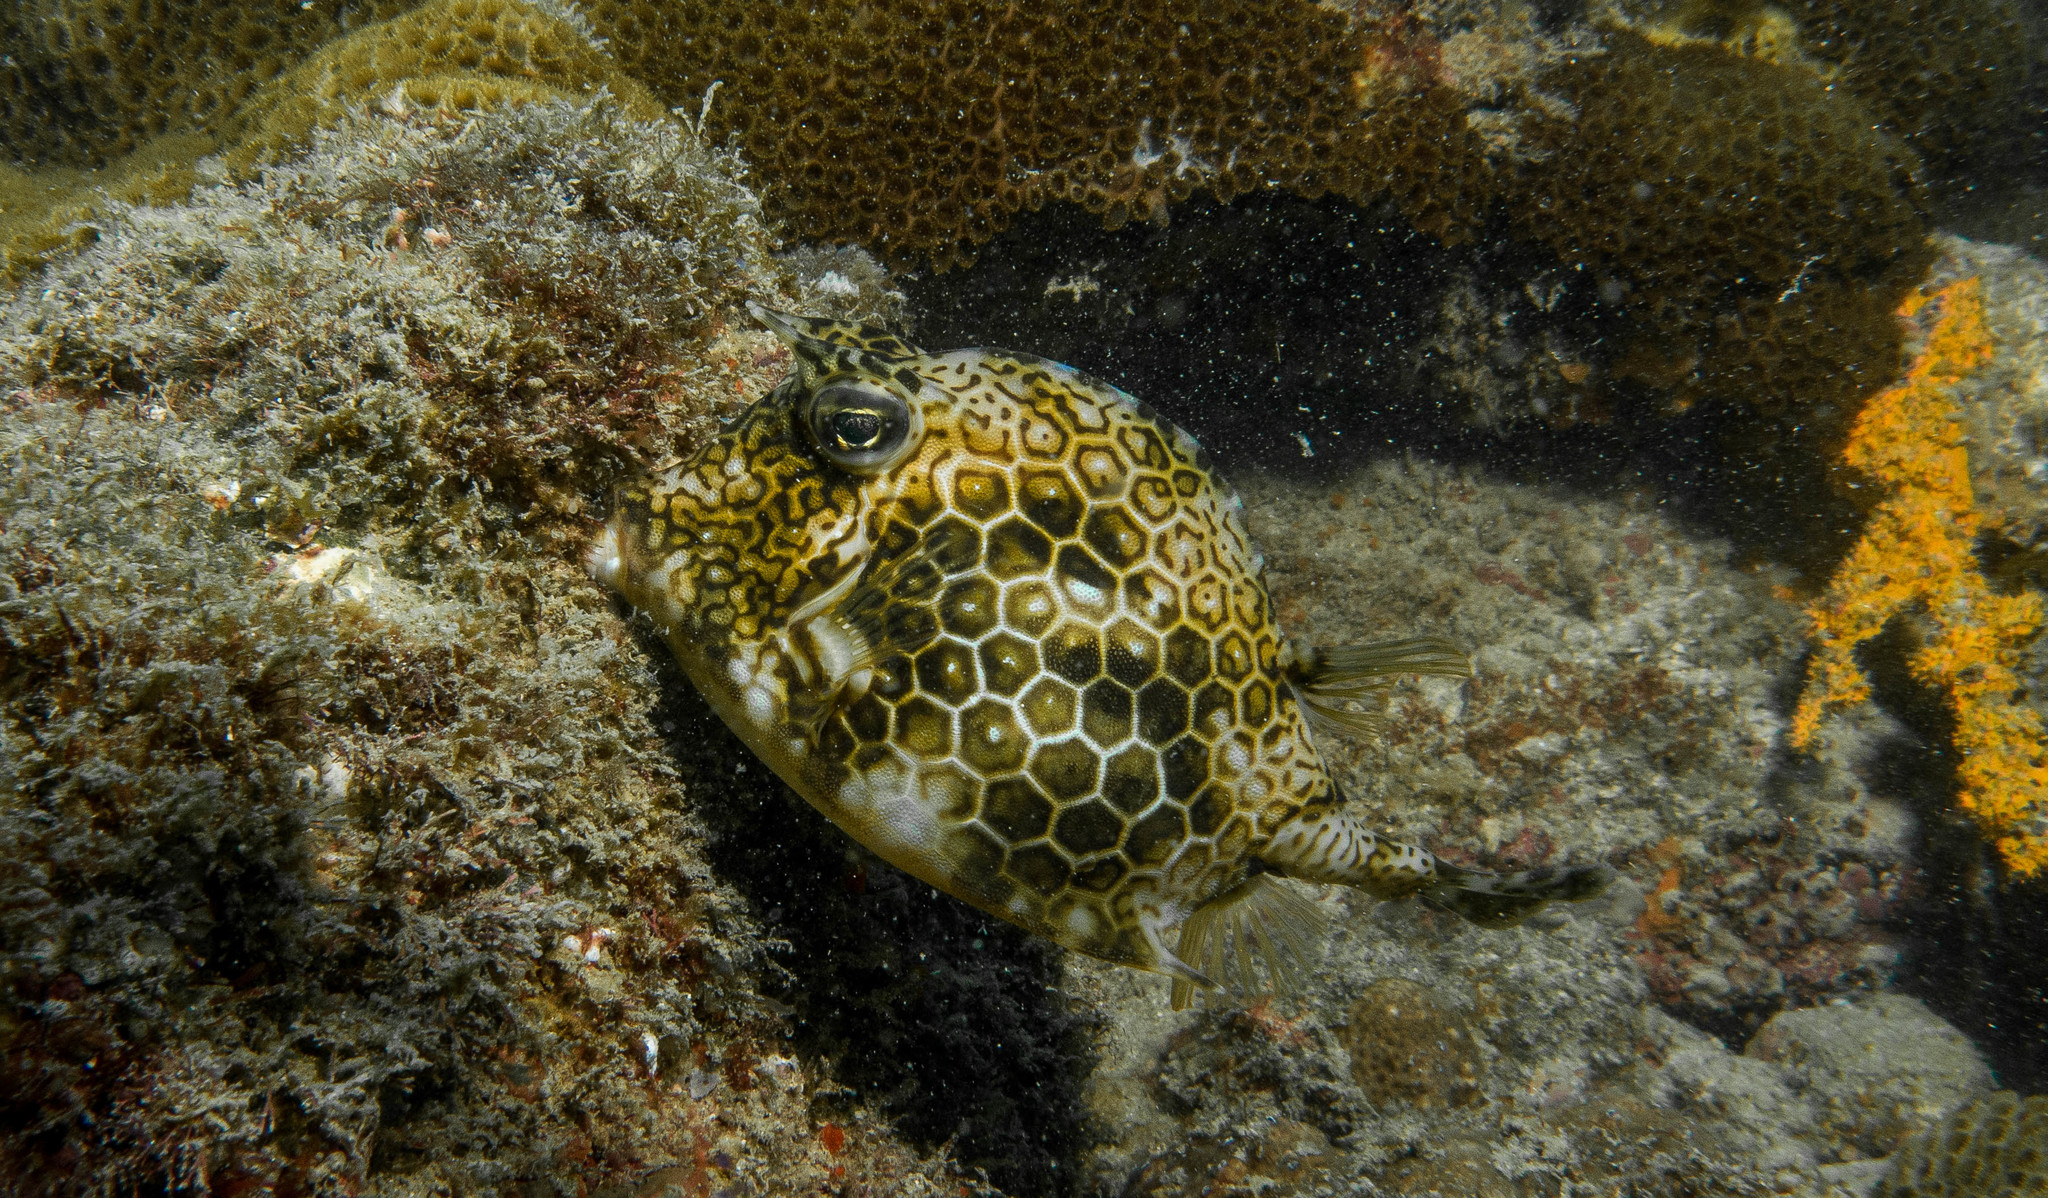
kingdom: Animalia
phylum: Chordata
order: Tetraodontiformes
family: Ostraciidae
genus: Acanthostracion
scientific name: Acanthostracion polygonius
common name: Honeycomb cowfish
